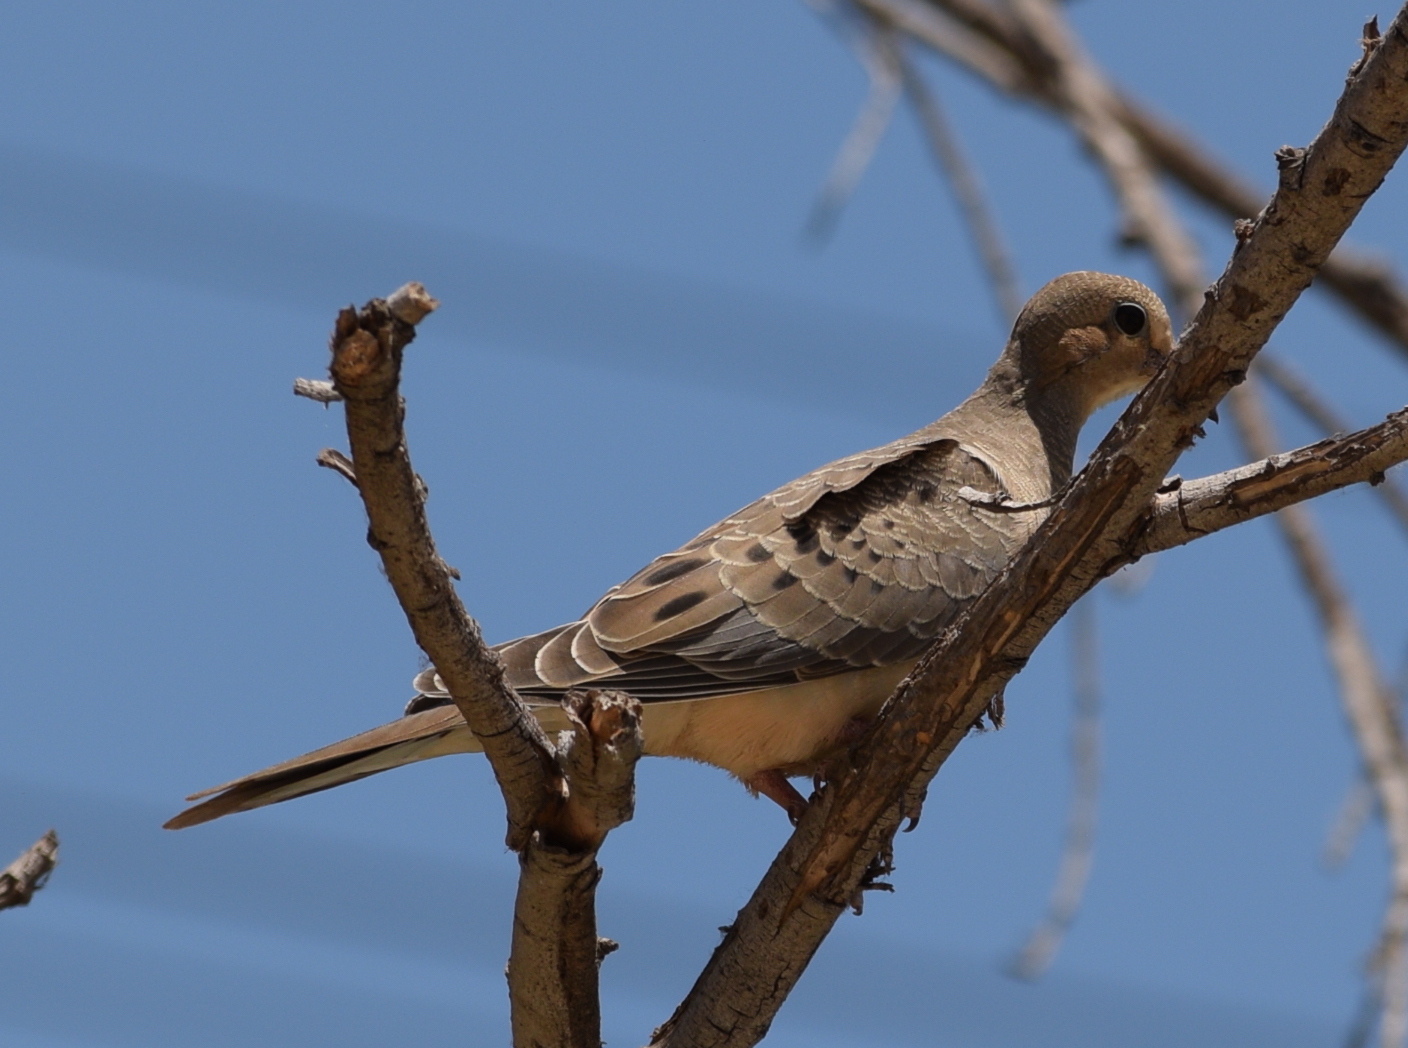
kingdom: Animalia
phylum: Chordata
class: Aves
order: Columbiformes
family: Columbidae
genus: Zenaida
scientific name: Zenaida macroura
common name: Mourning dove
